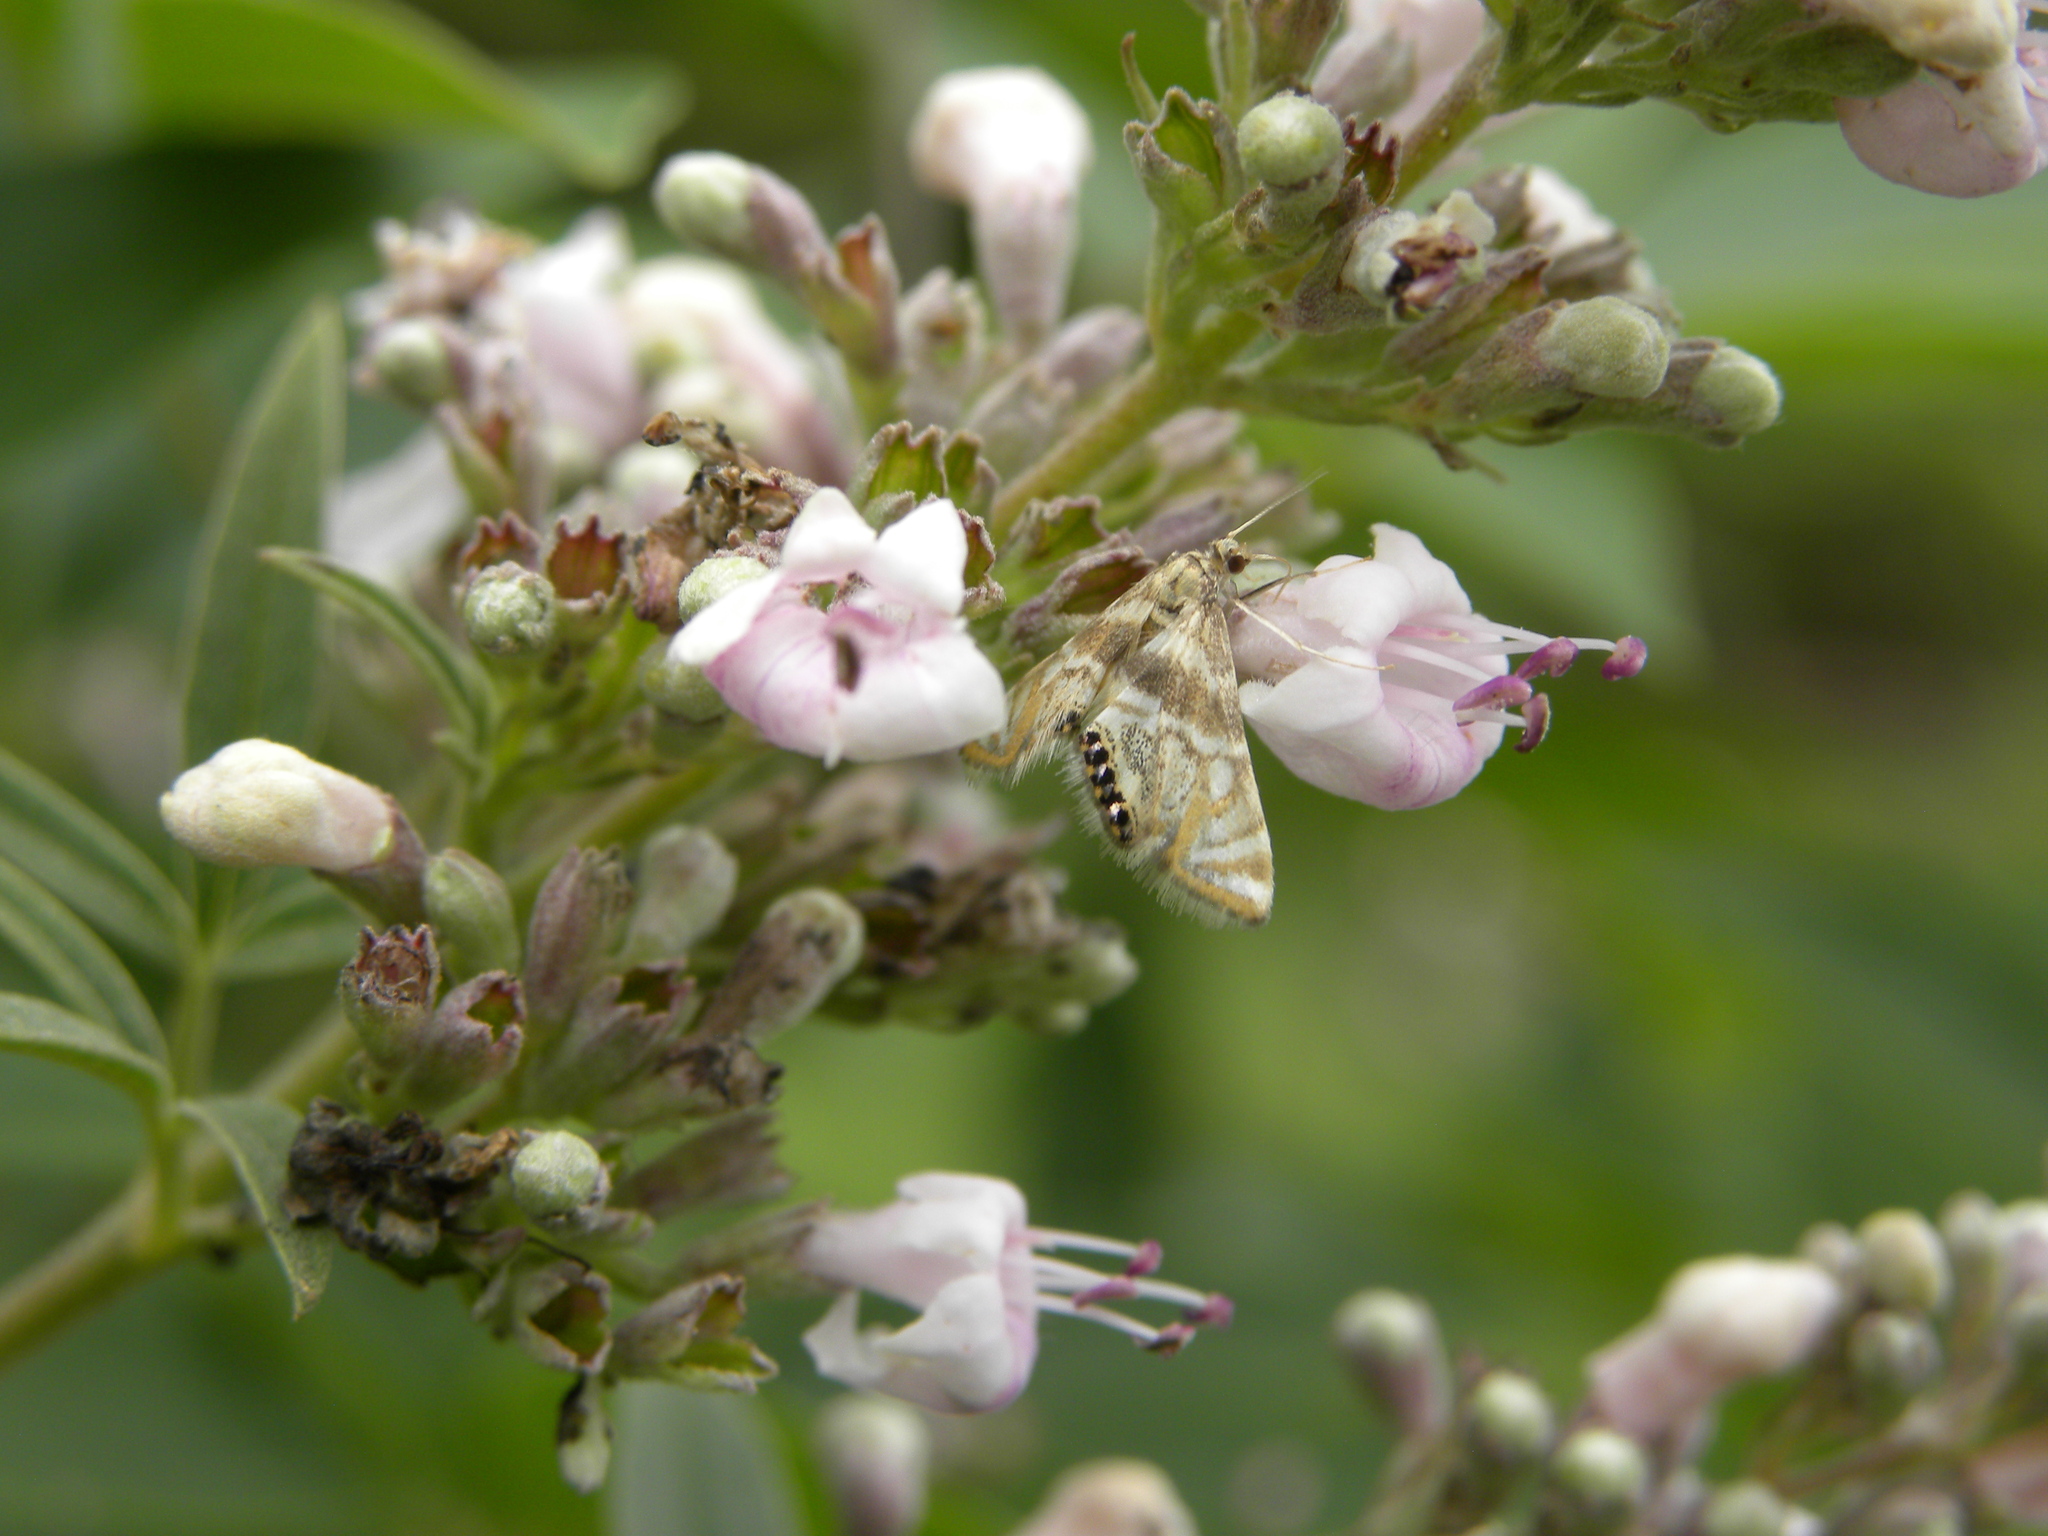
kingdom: Animalia
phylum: Arthropoda
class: Insecta
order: Lepidoptera
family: Crambidae
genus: Petrophila
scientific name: Petrophila canadensis
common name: Canadian petrophila
